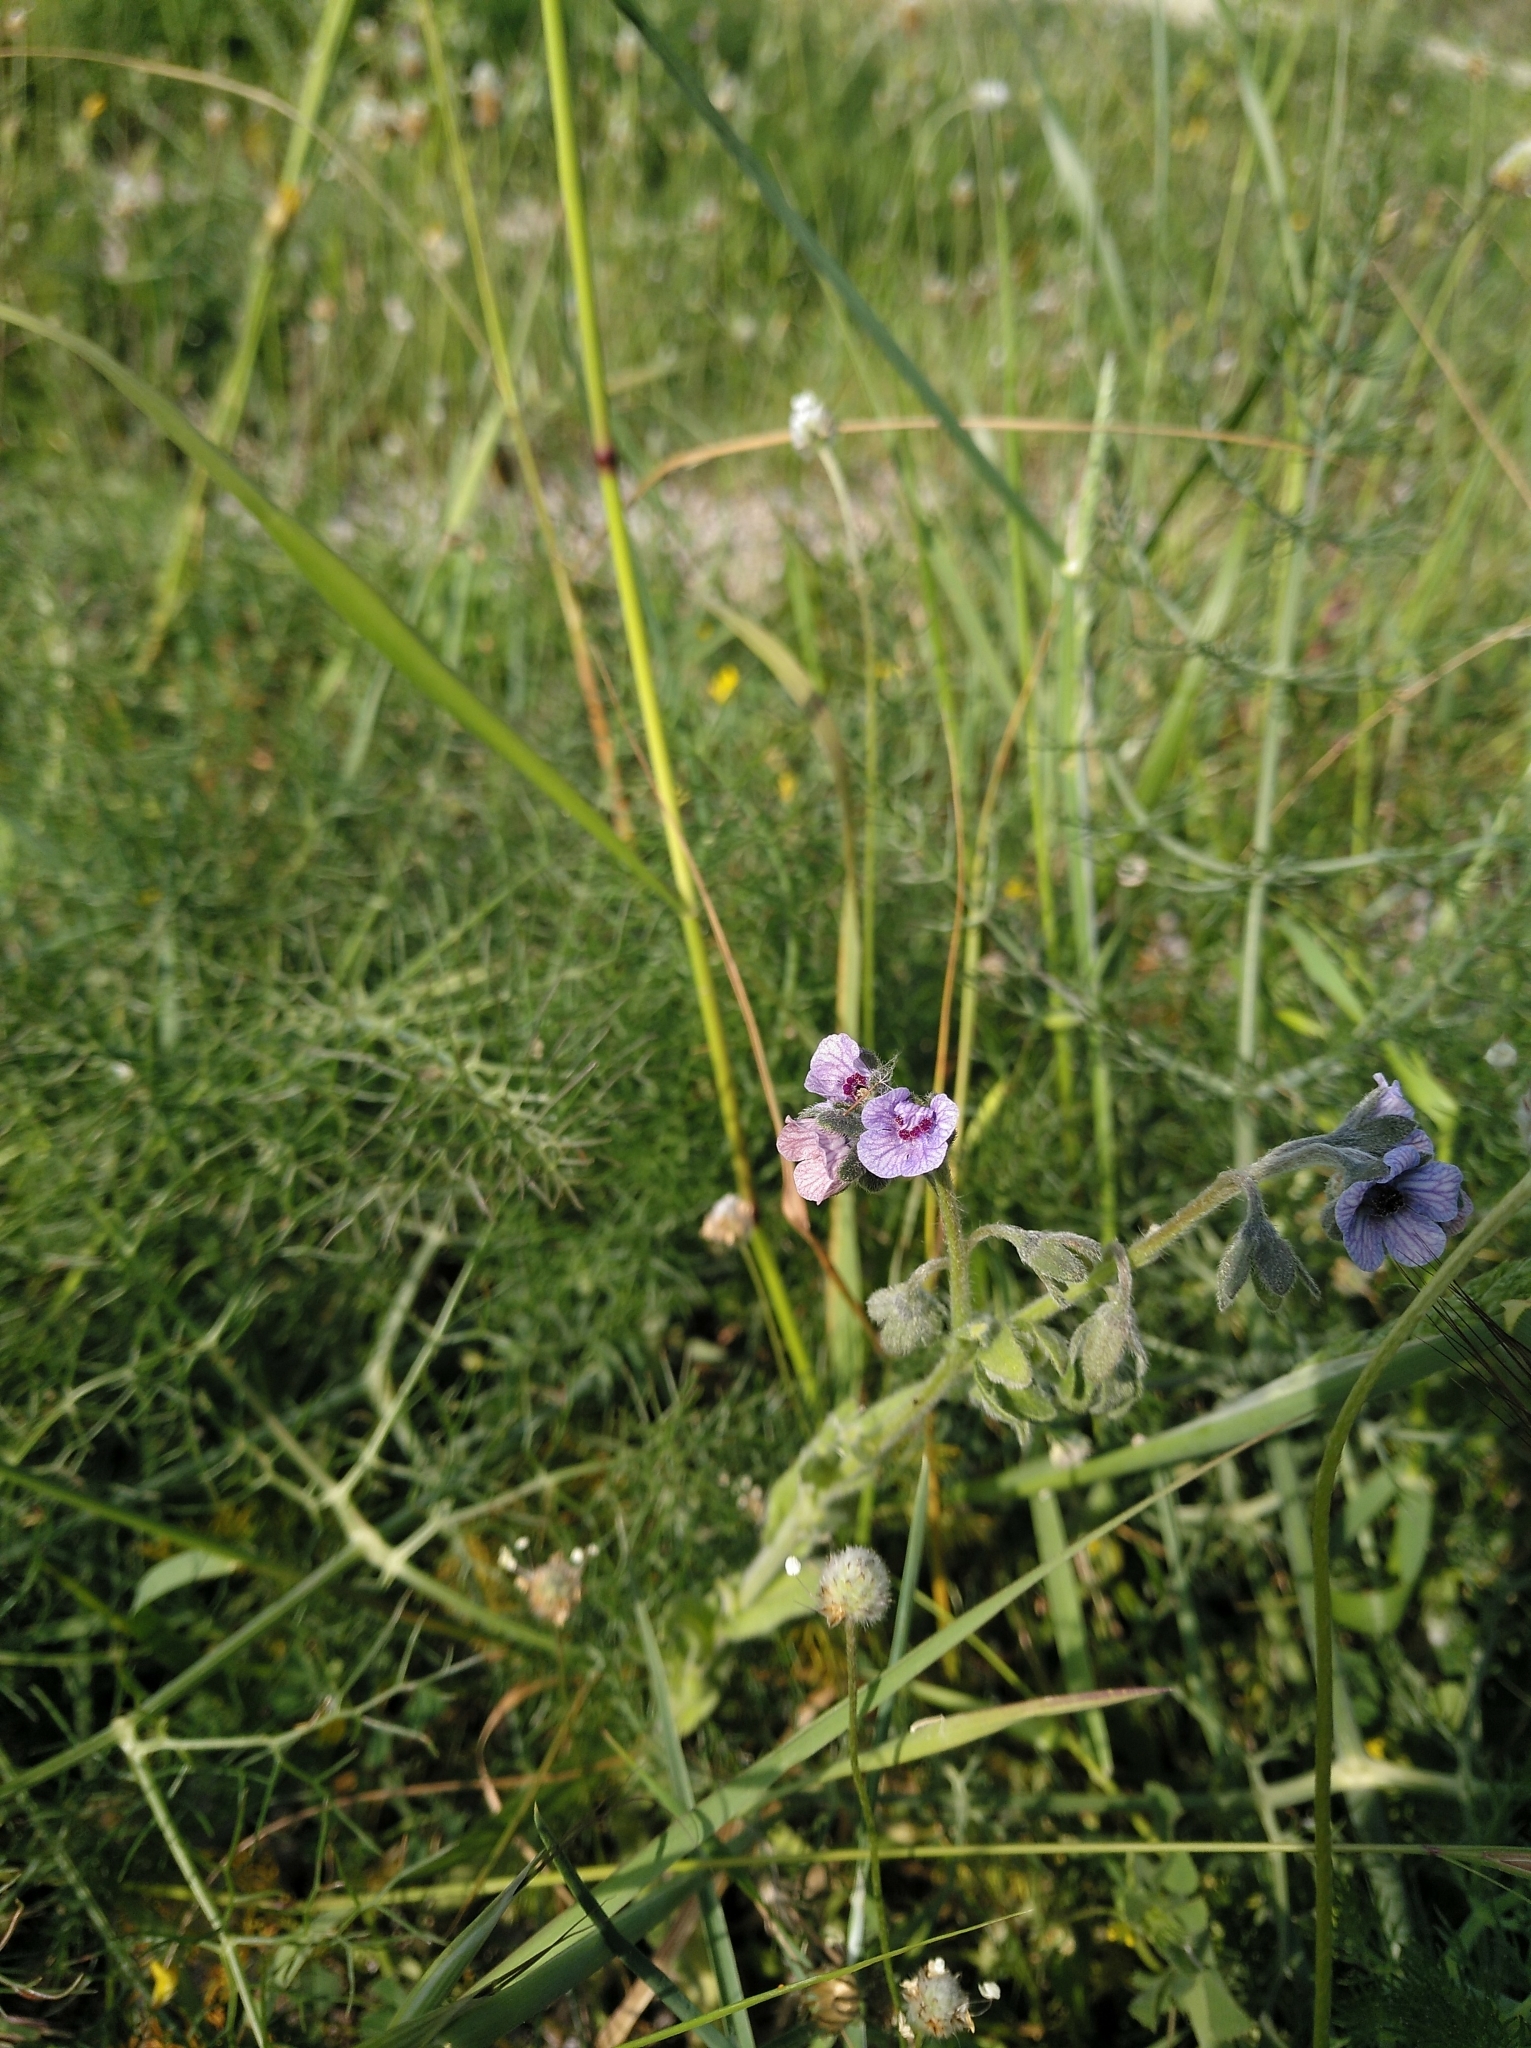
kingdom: Plantae
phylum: Tracheophyta
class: Magnoliopsida
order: Boraginales
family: Boraginaceae
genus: Cynoglossum
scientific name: Cynoglossum creticum
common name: Blue hound's tongue
